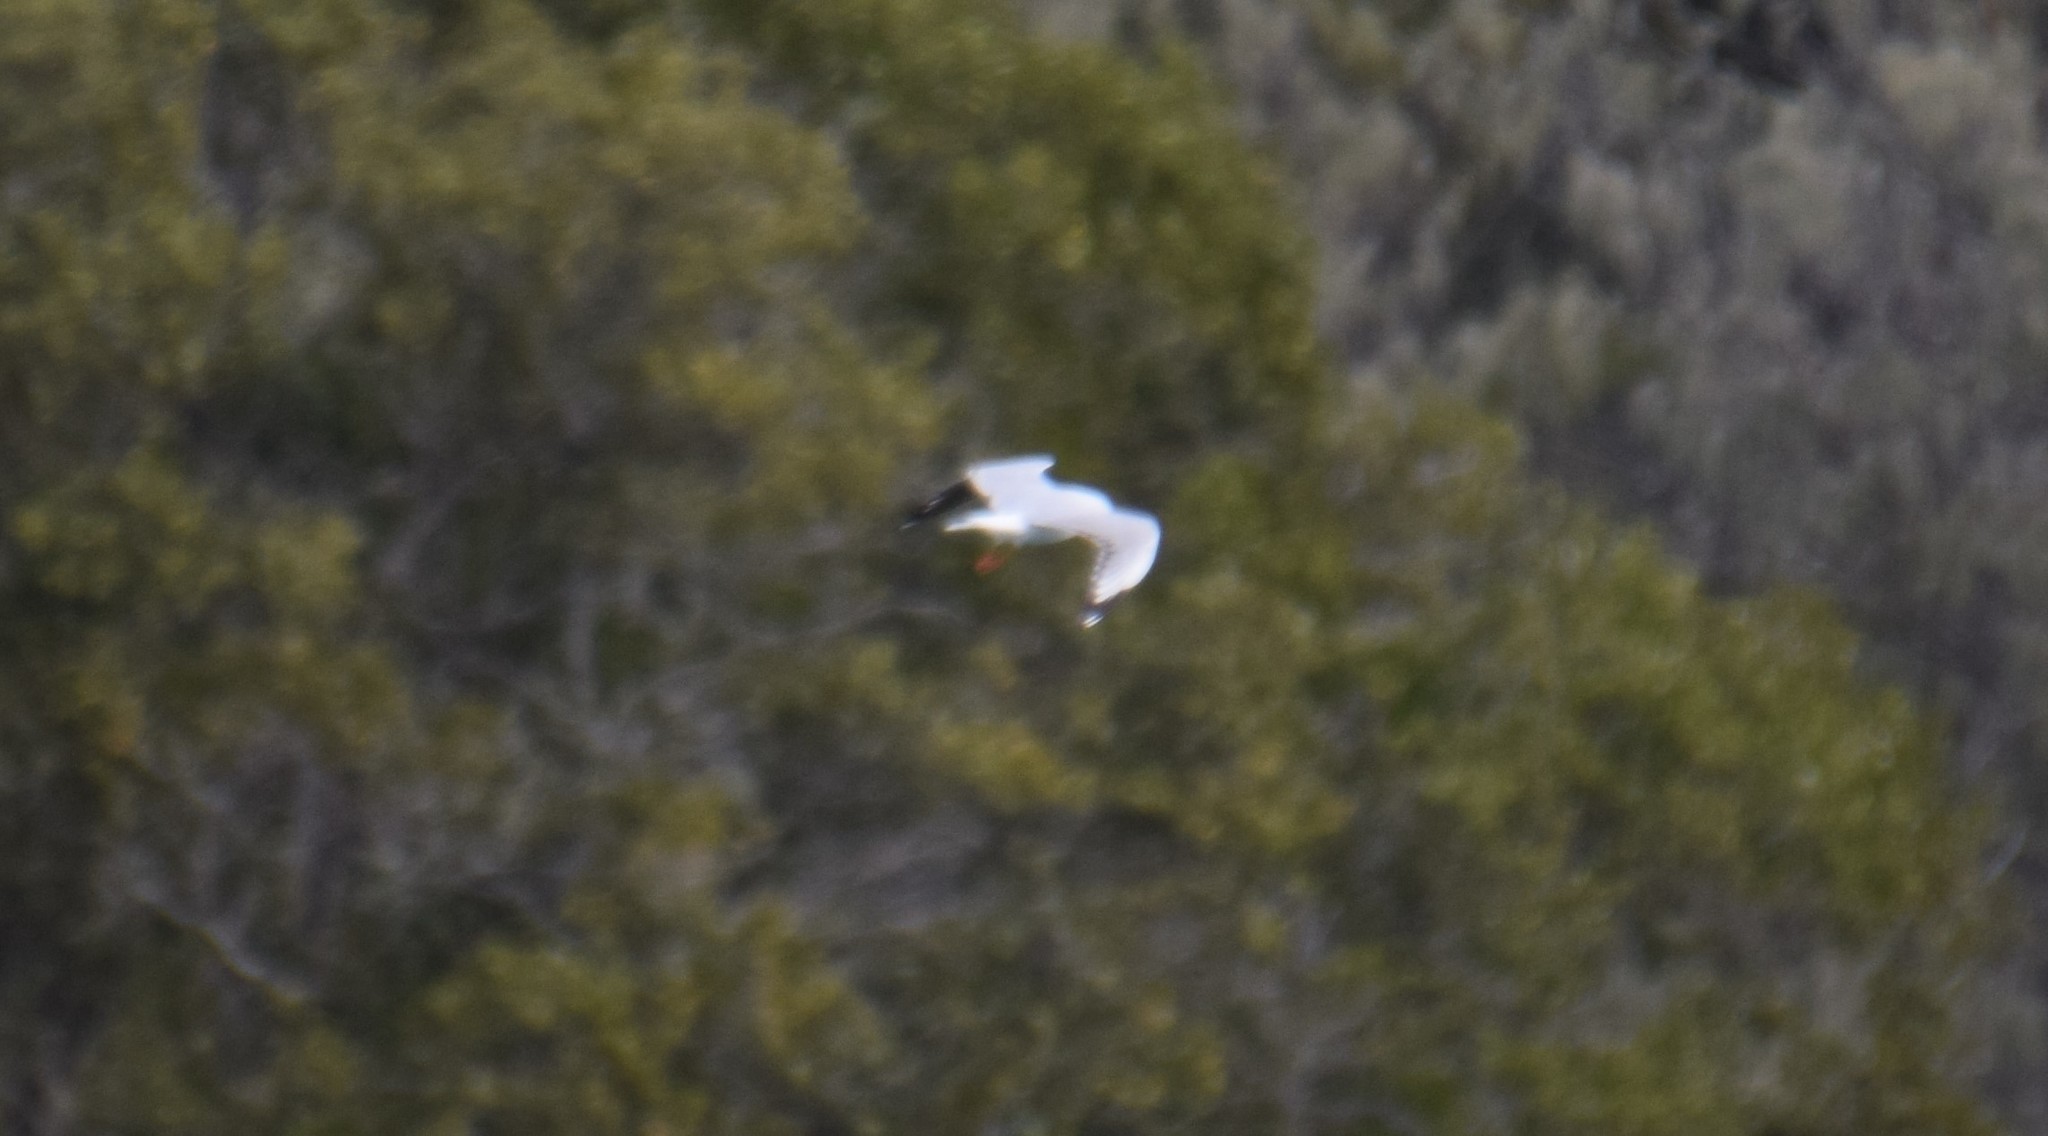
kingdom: Animalia
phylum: Chordata
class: Aves
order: Charadriiformes
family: Laridae
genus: Chroicocephalus
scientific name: Chroicocephalus novaehollandiae
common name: Silver gull
